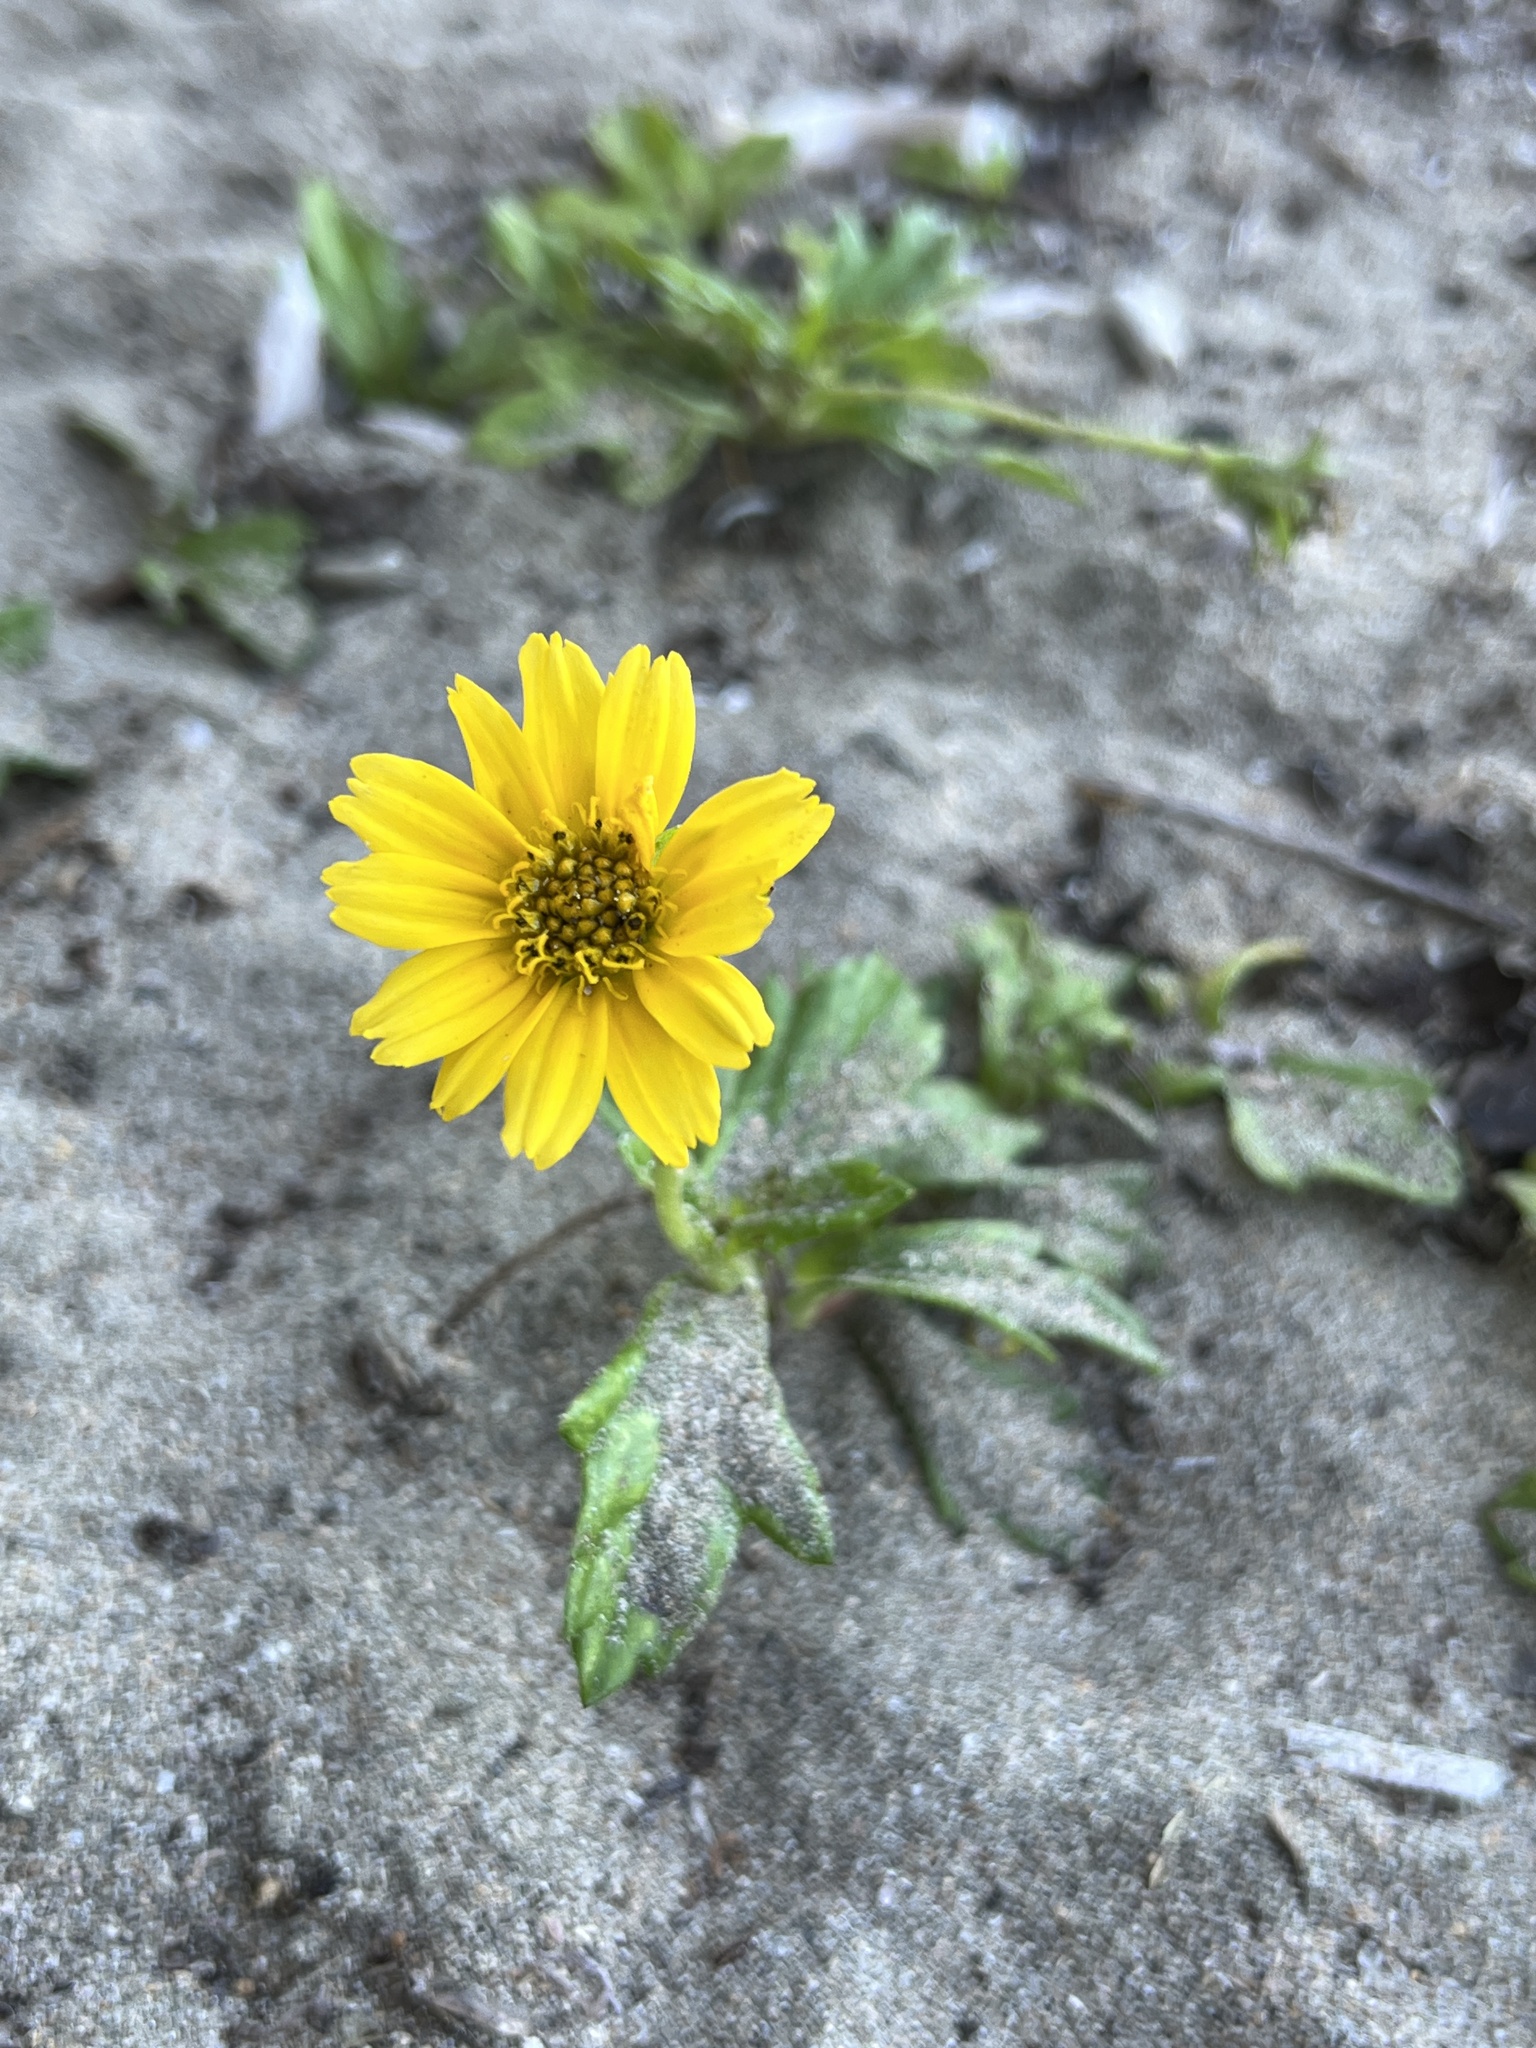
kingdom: Plantae
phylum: Tracheophyta
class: Magnoliopsida
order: Asterales
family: Asteraceae
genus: Sphagneticola
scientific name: Sphagneticola trilobata
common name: Bay biscayne creeping-oxeye
